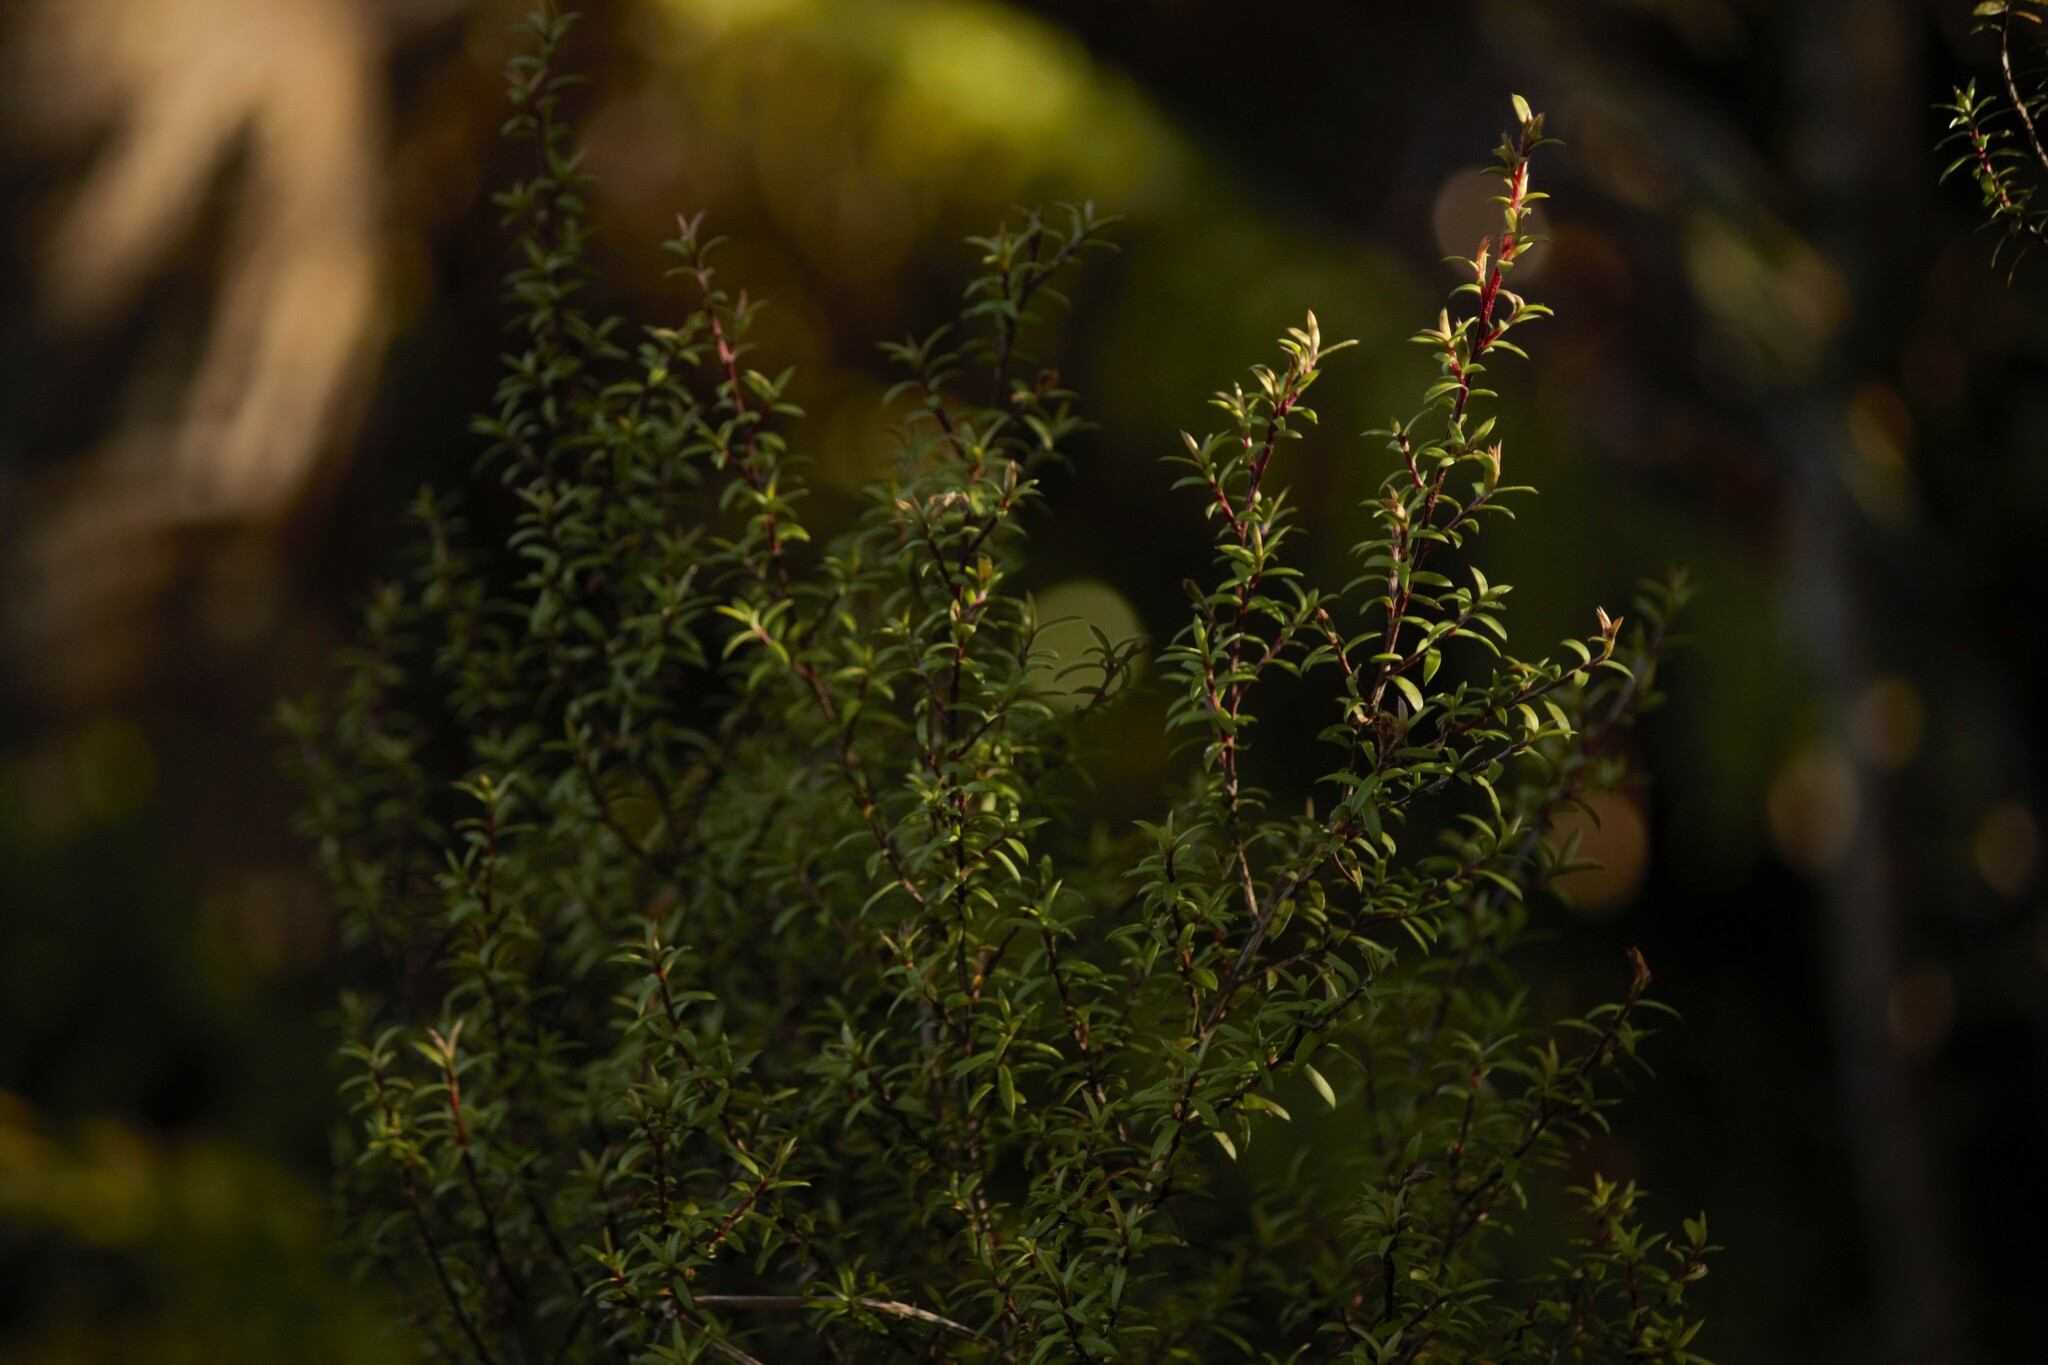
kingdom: Plantae
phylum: Tracheophyta
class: Magnoliopsida
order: Myrtales
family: Myrtaceae
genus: Leptospermum
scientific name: Leptospermum scoparium
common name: Broom tea-tree
